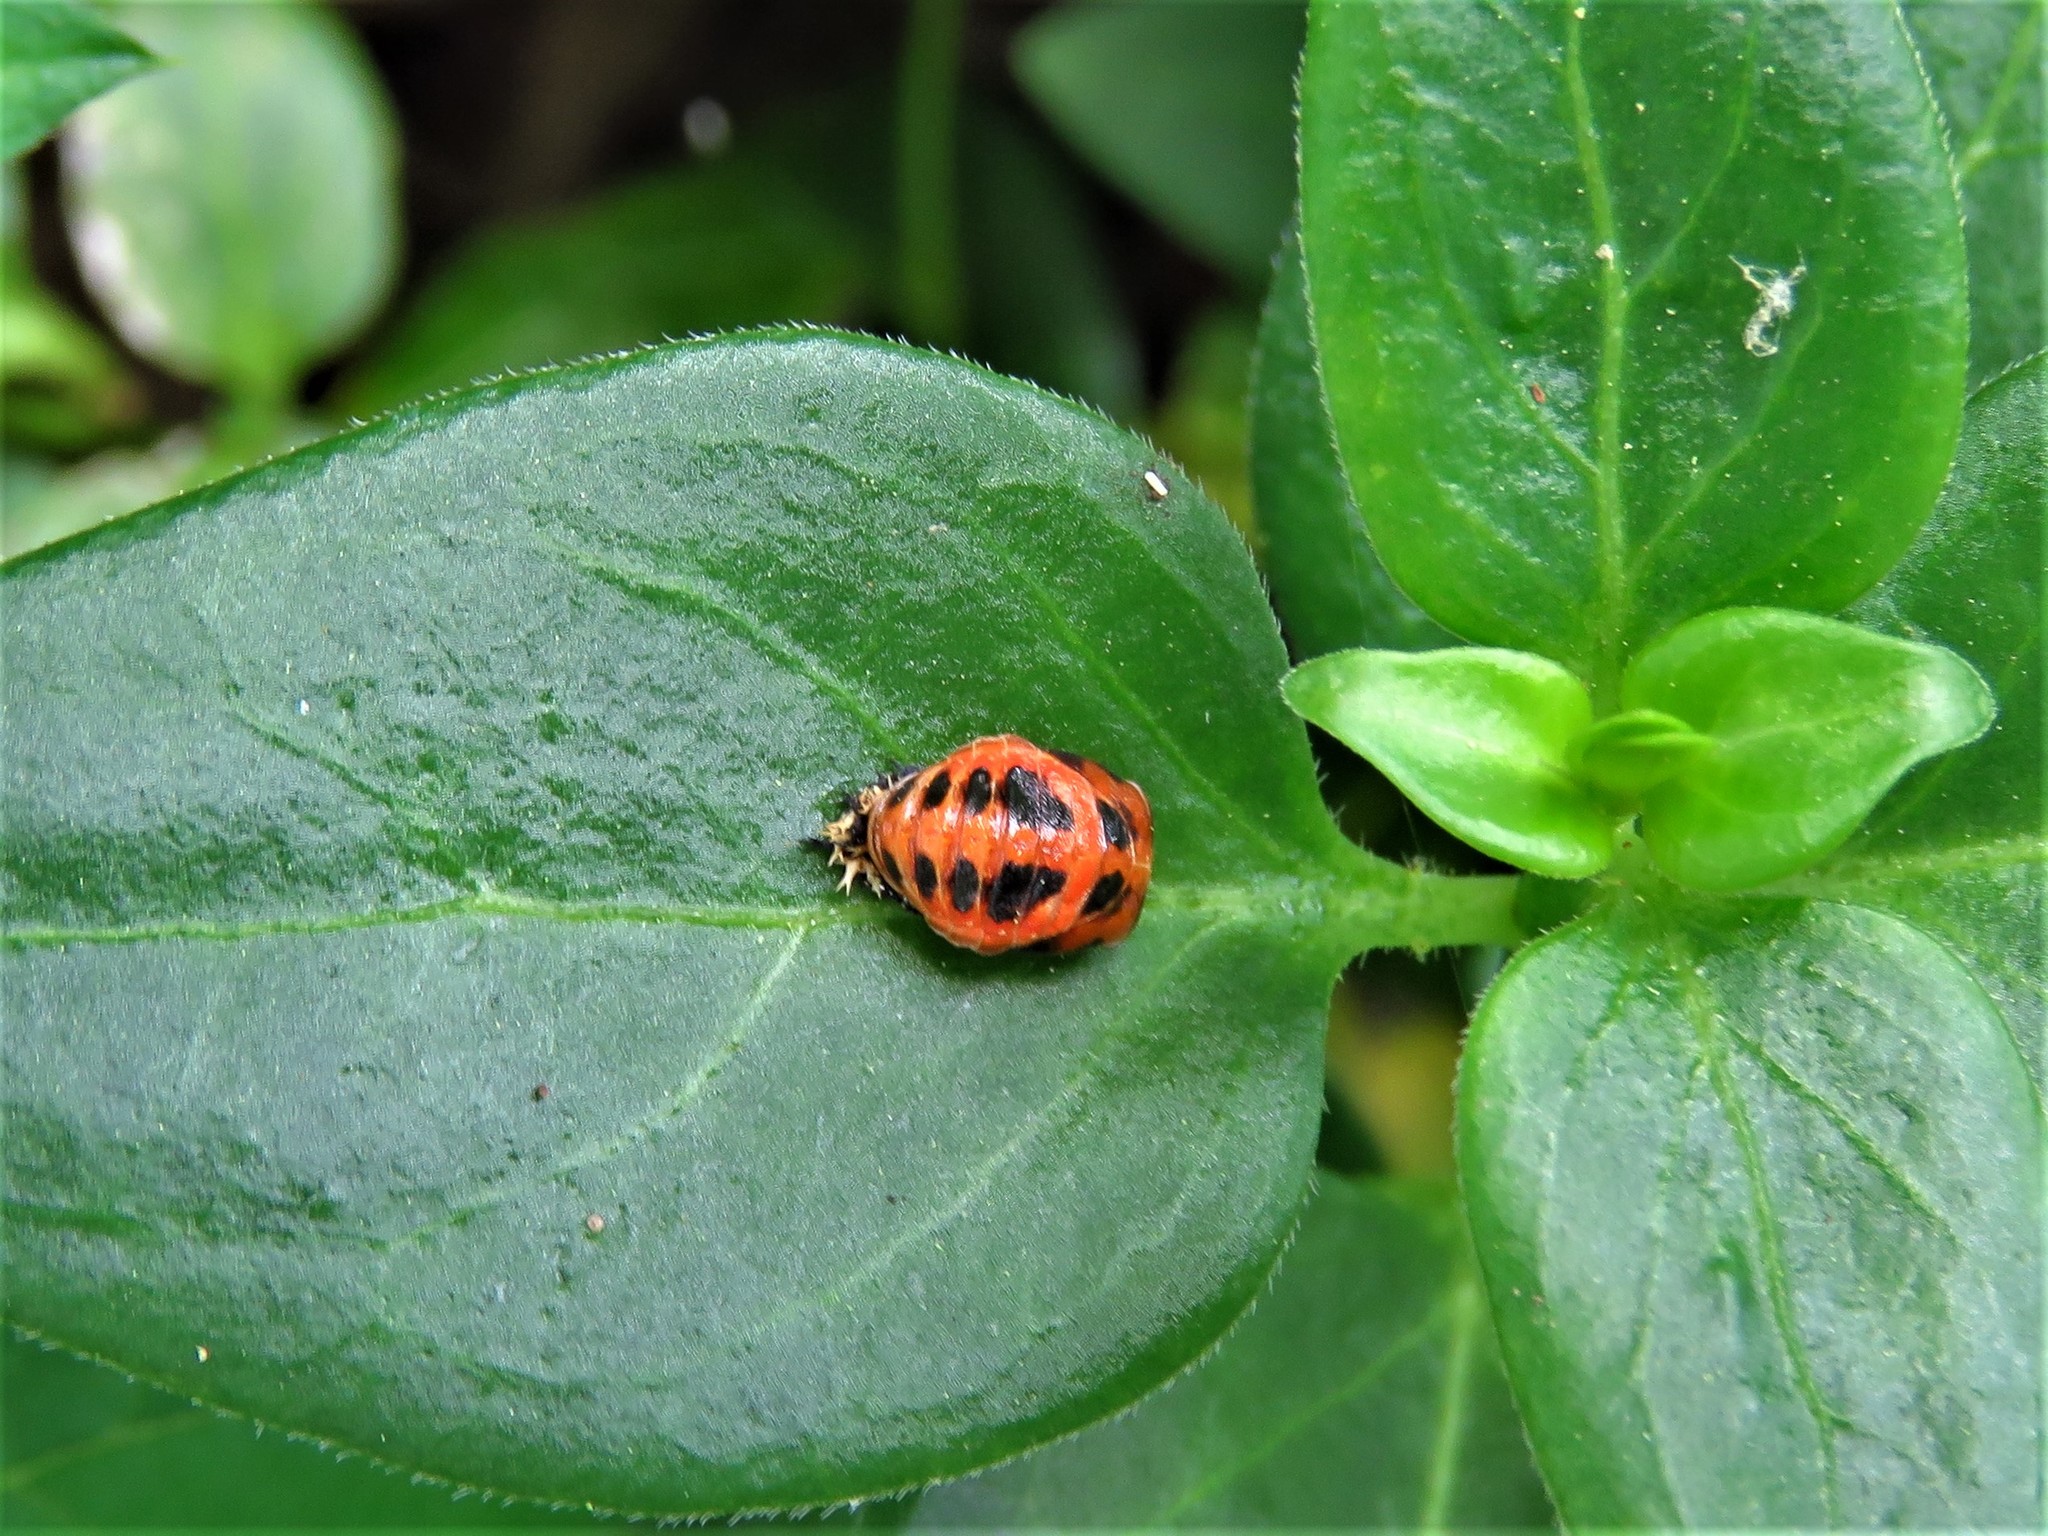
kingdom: Animalia
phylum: Arthropoda
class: Insecta
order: Coleoptera
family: Coccinellidae
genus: Harmonia
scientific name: Harmonia axyridis
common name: Harlequin ladybird
